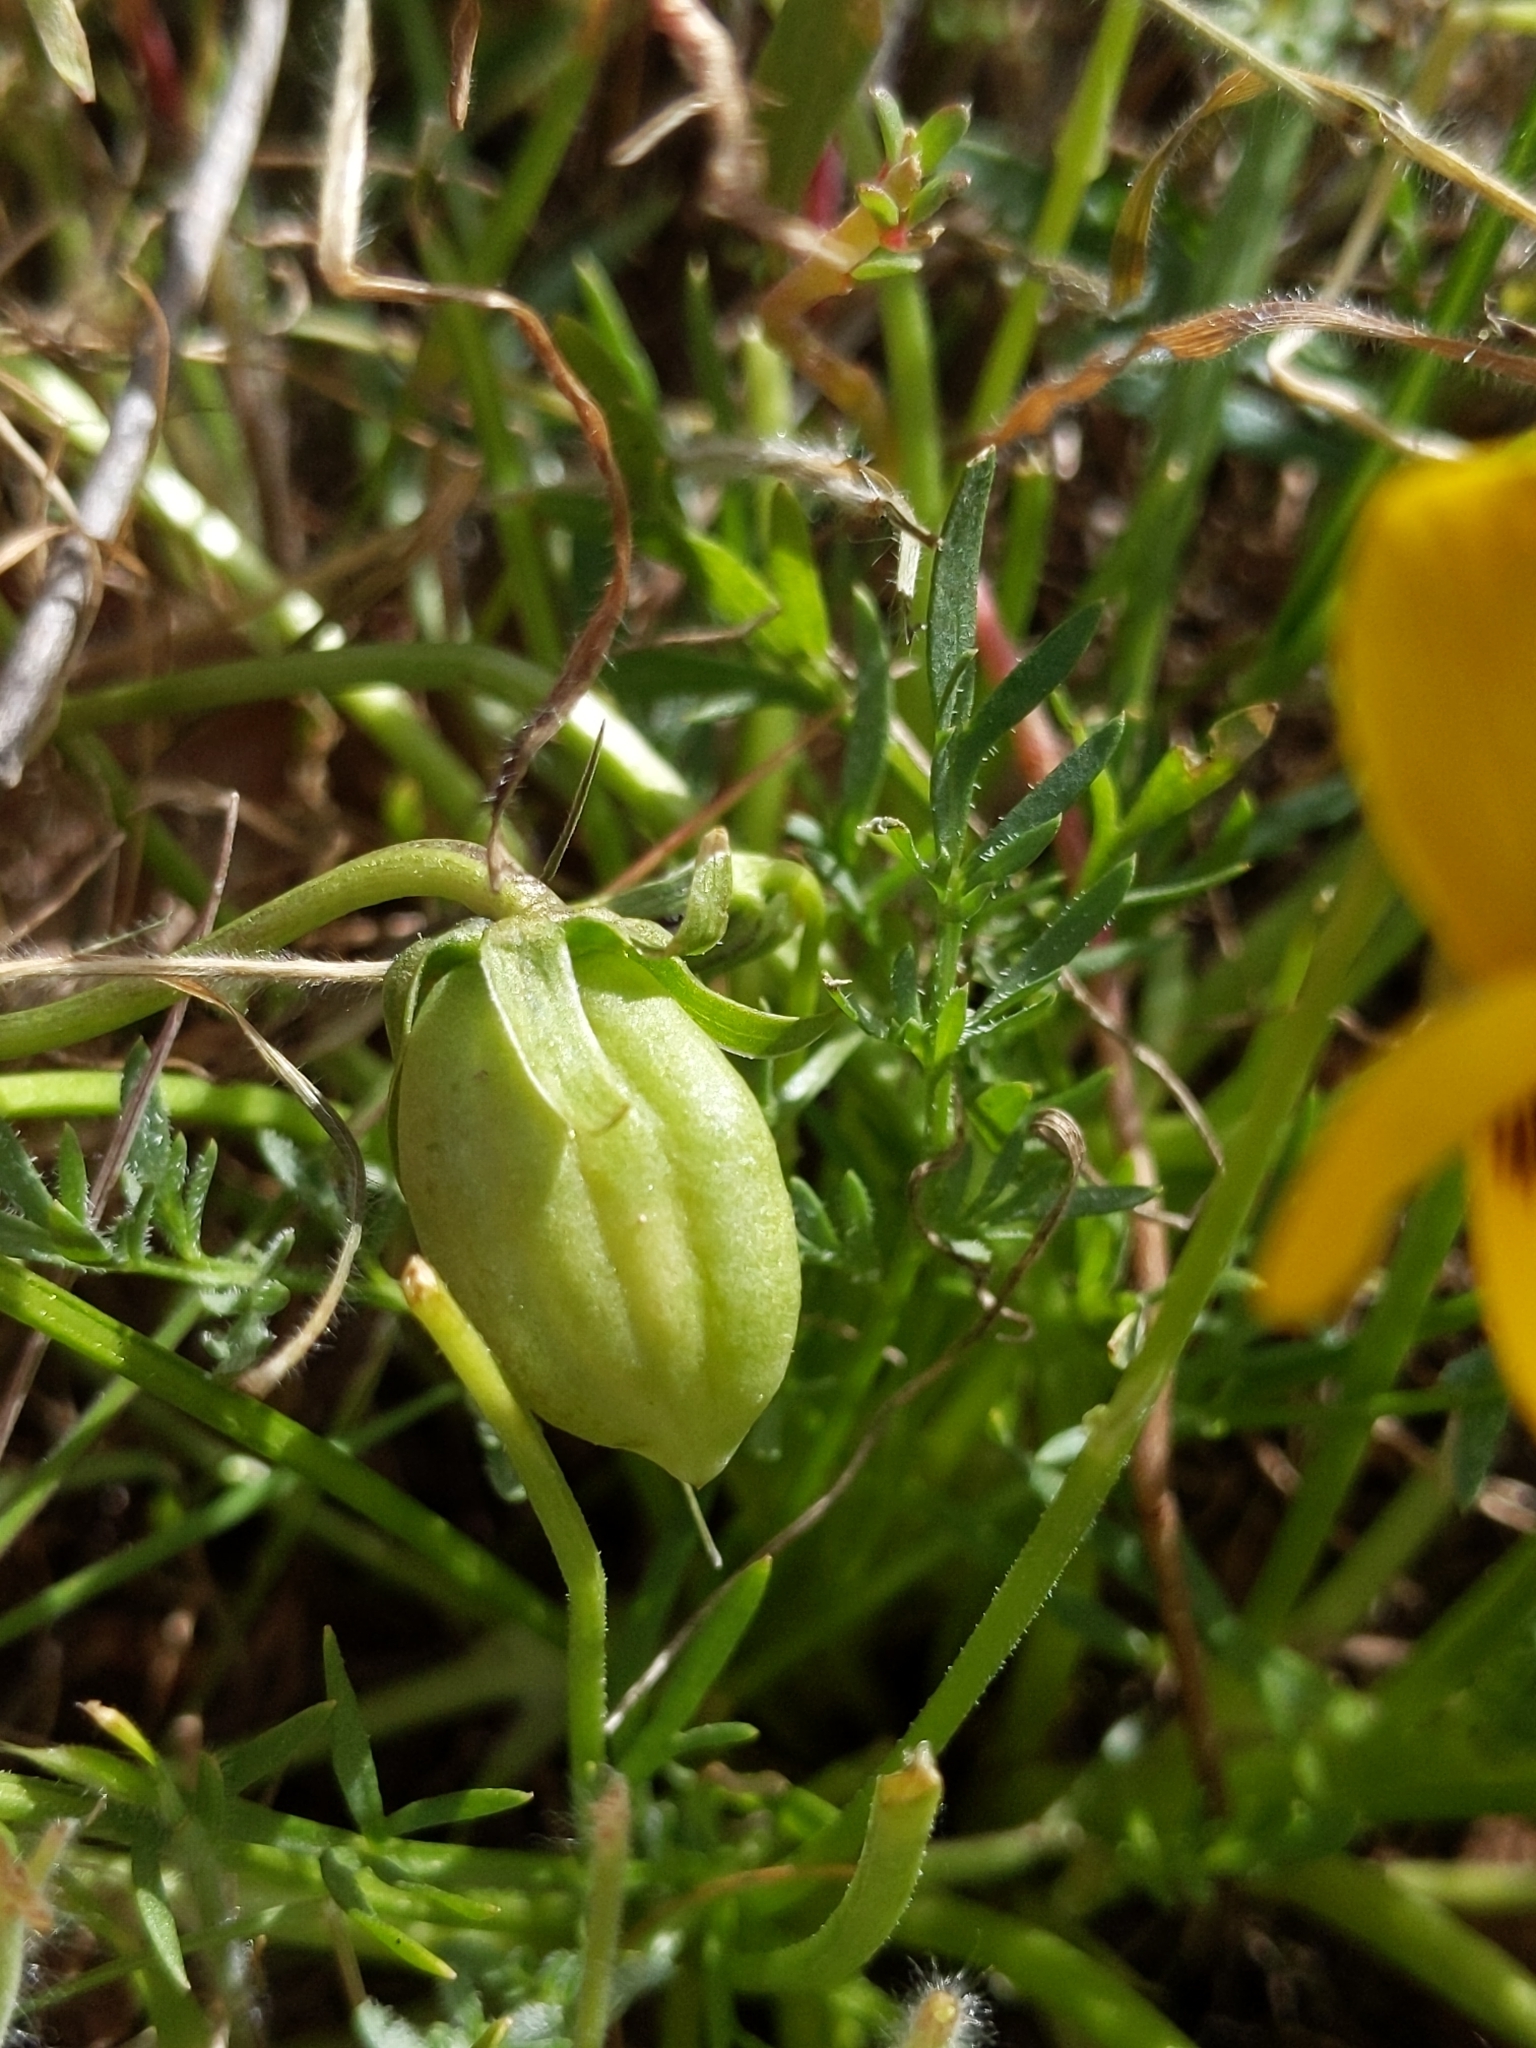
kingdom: Plantae
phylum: Tracheophyta
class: Magnoliopsida
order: Malpighiales
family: Violaceae
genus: Viola
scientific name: Viola douglasii
